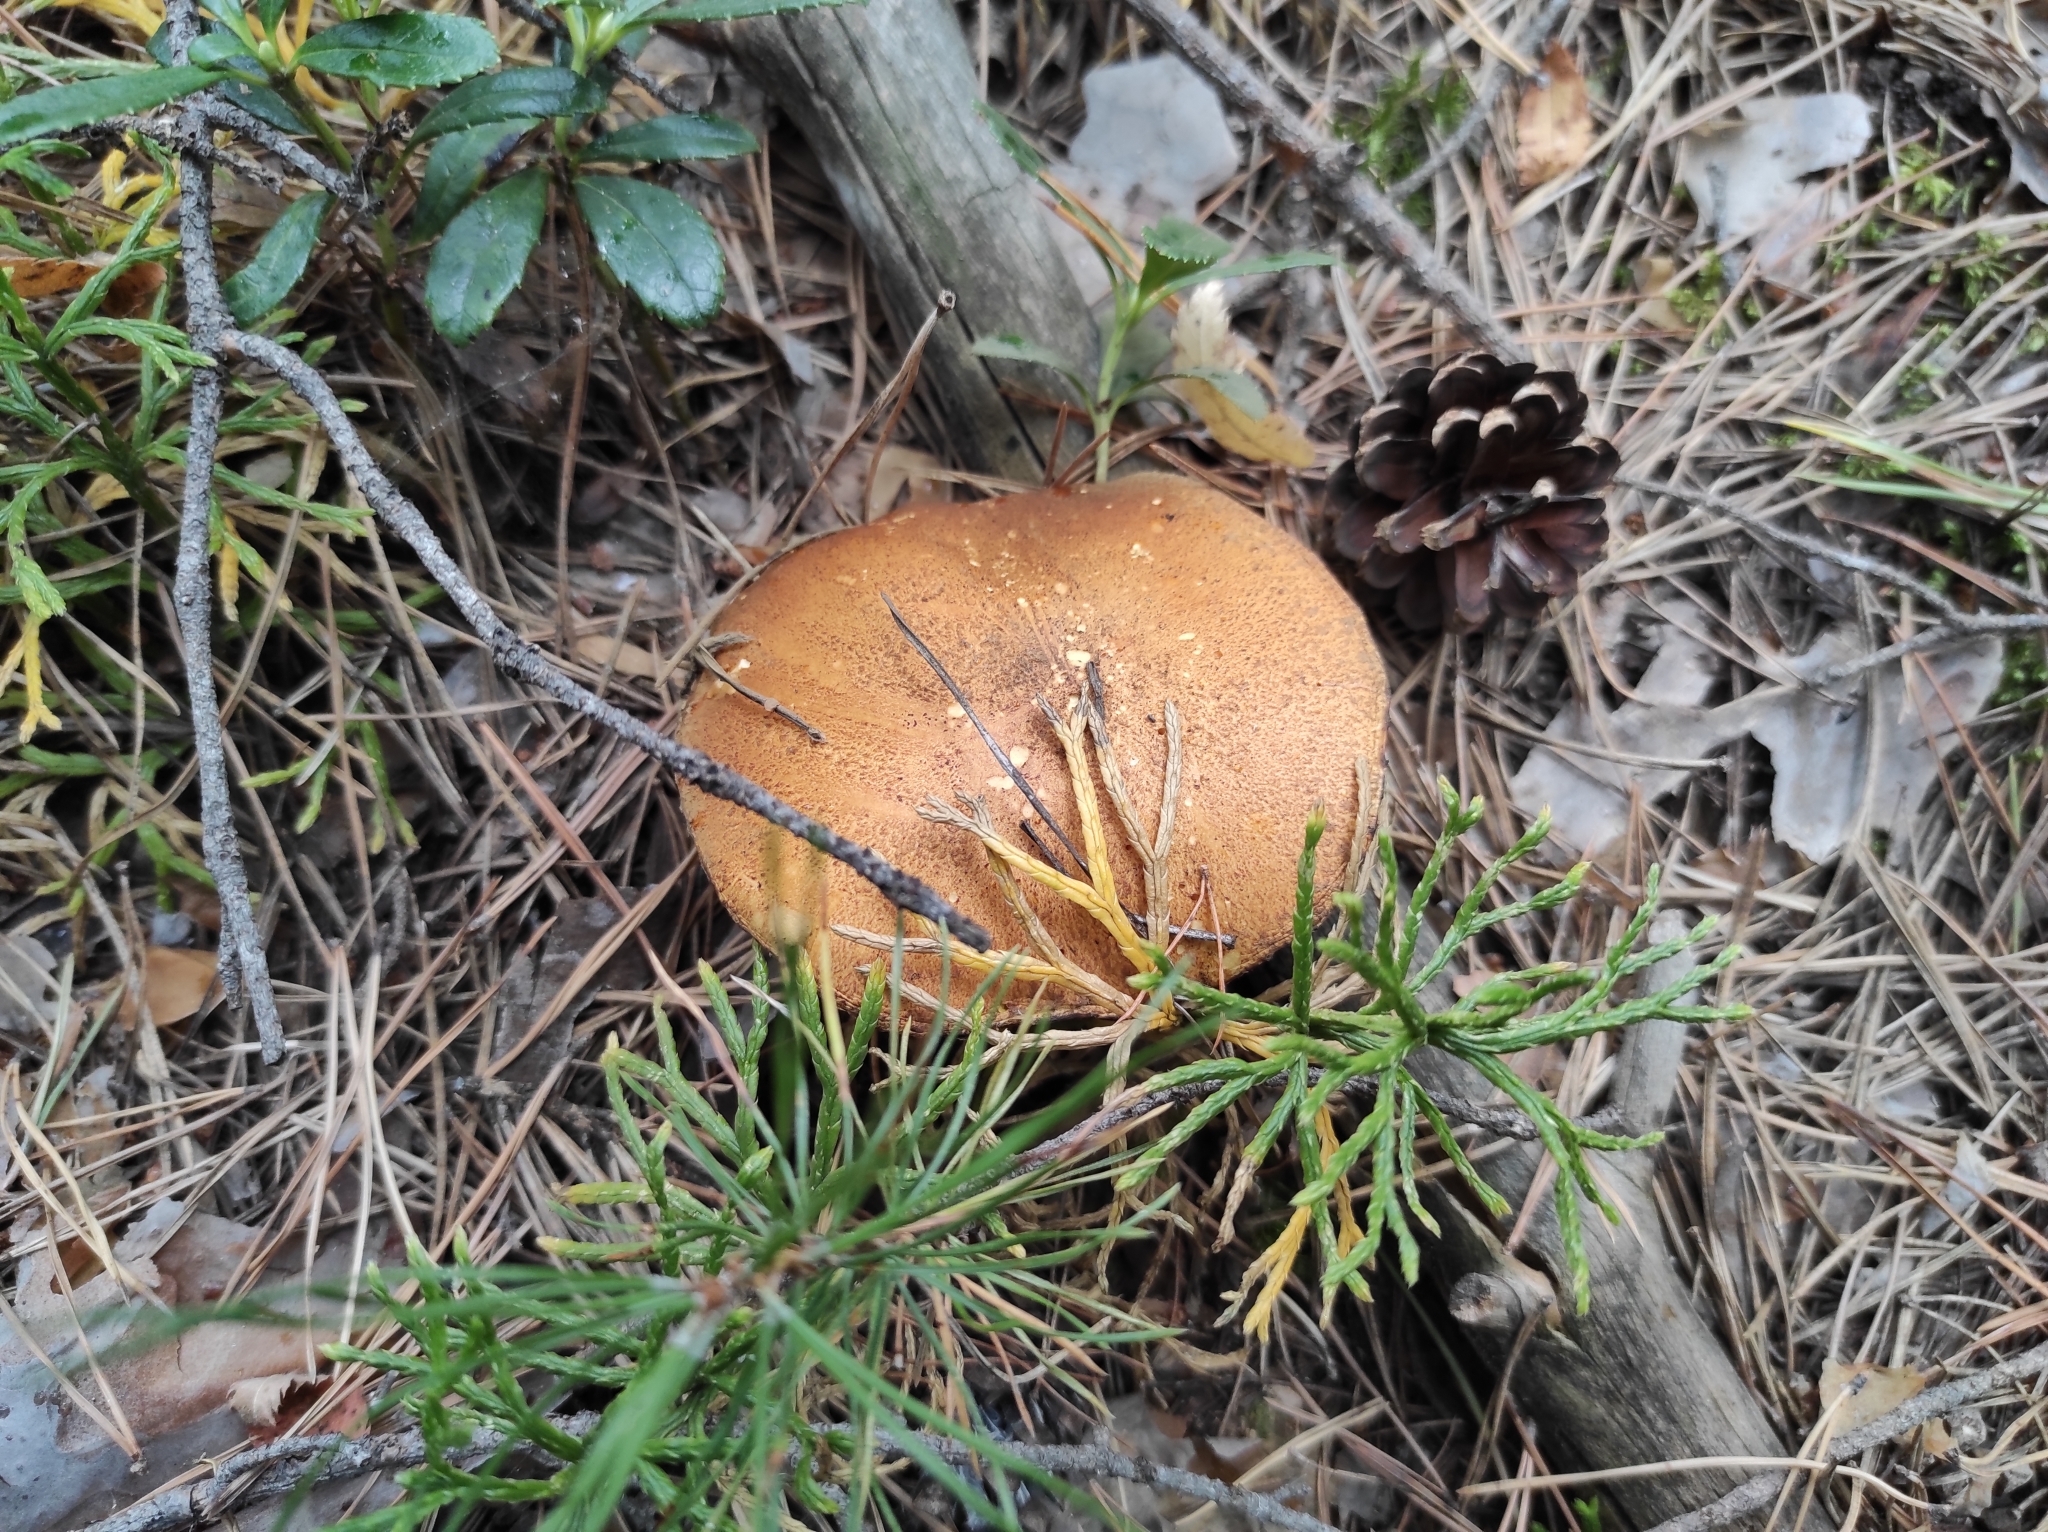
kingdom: Plantae
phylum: Tracheophyta
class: Lycopodiopsida
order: Lycopodiales
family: Lycopodiaceae
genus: Diphasiastrum
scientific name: Diphasiastrum complanatum
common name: Northern running-pine
